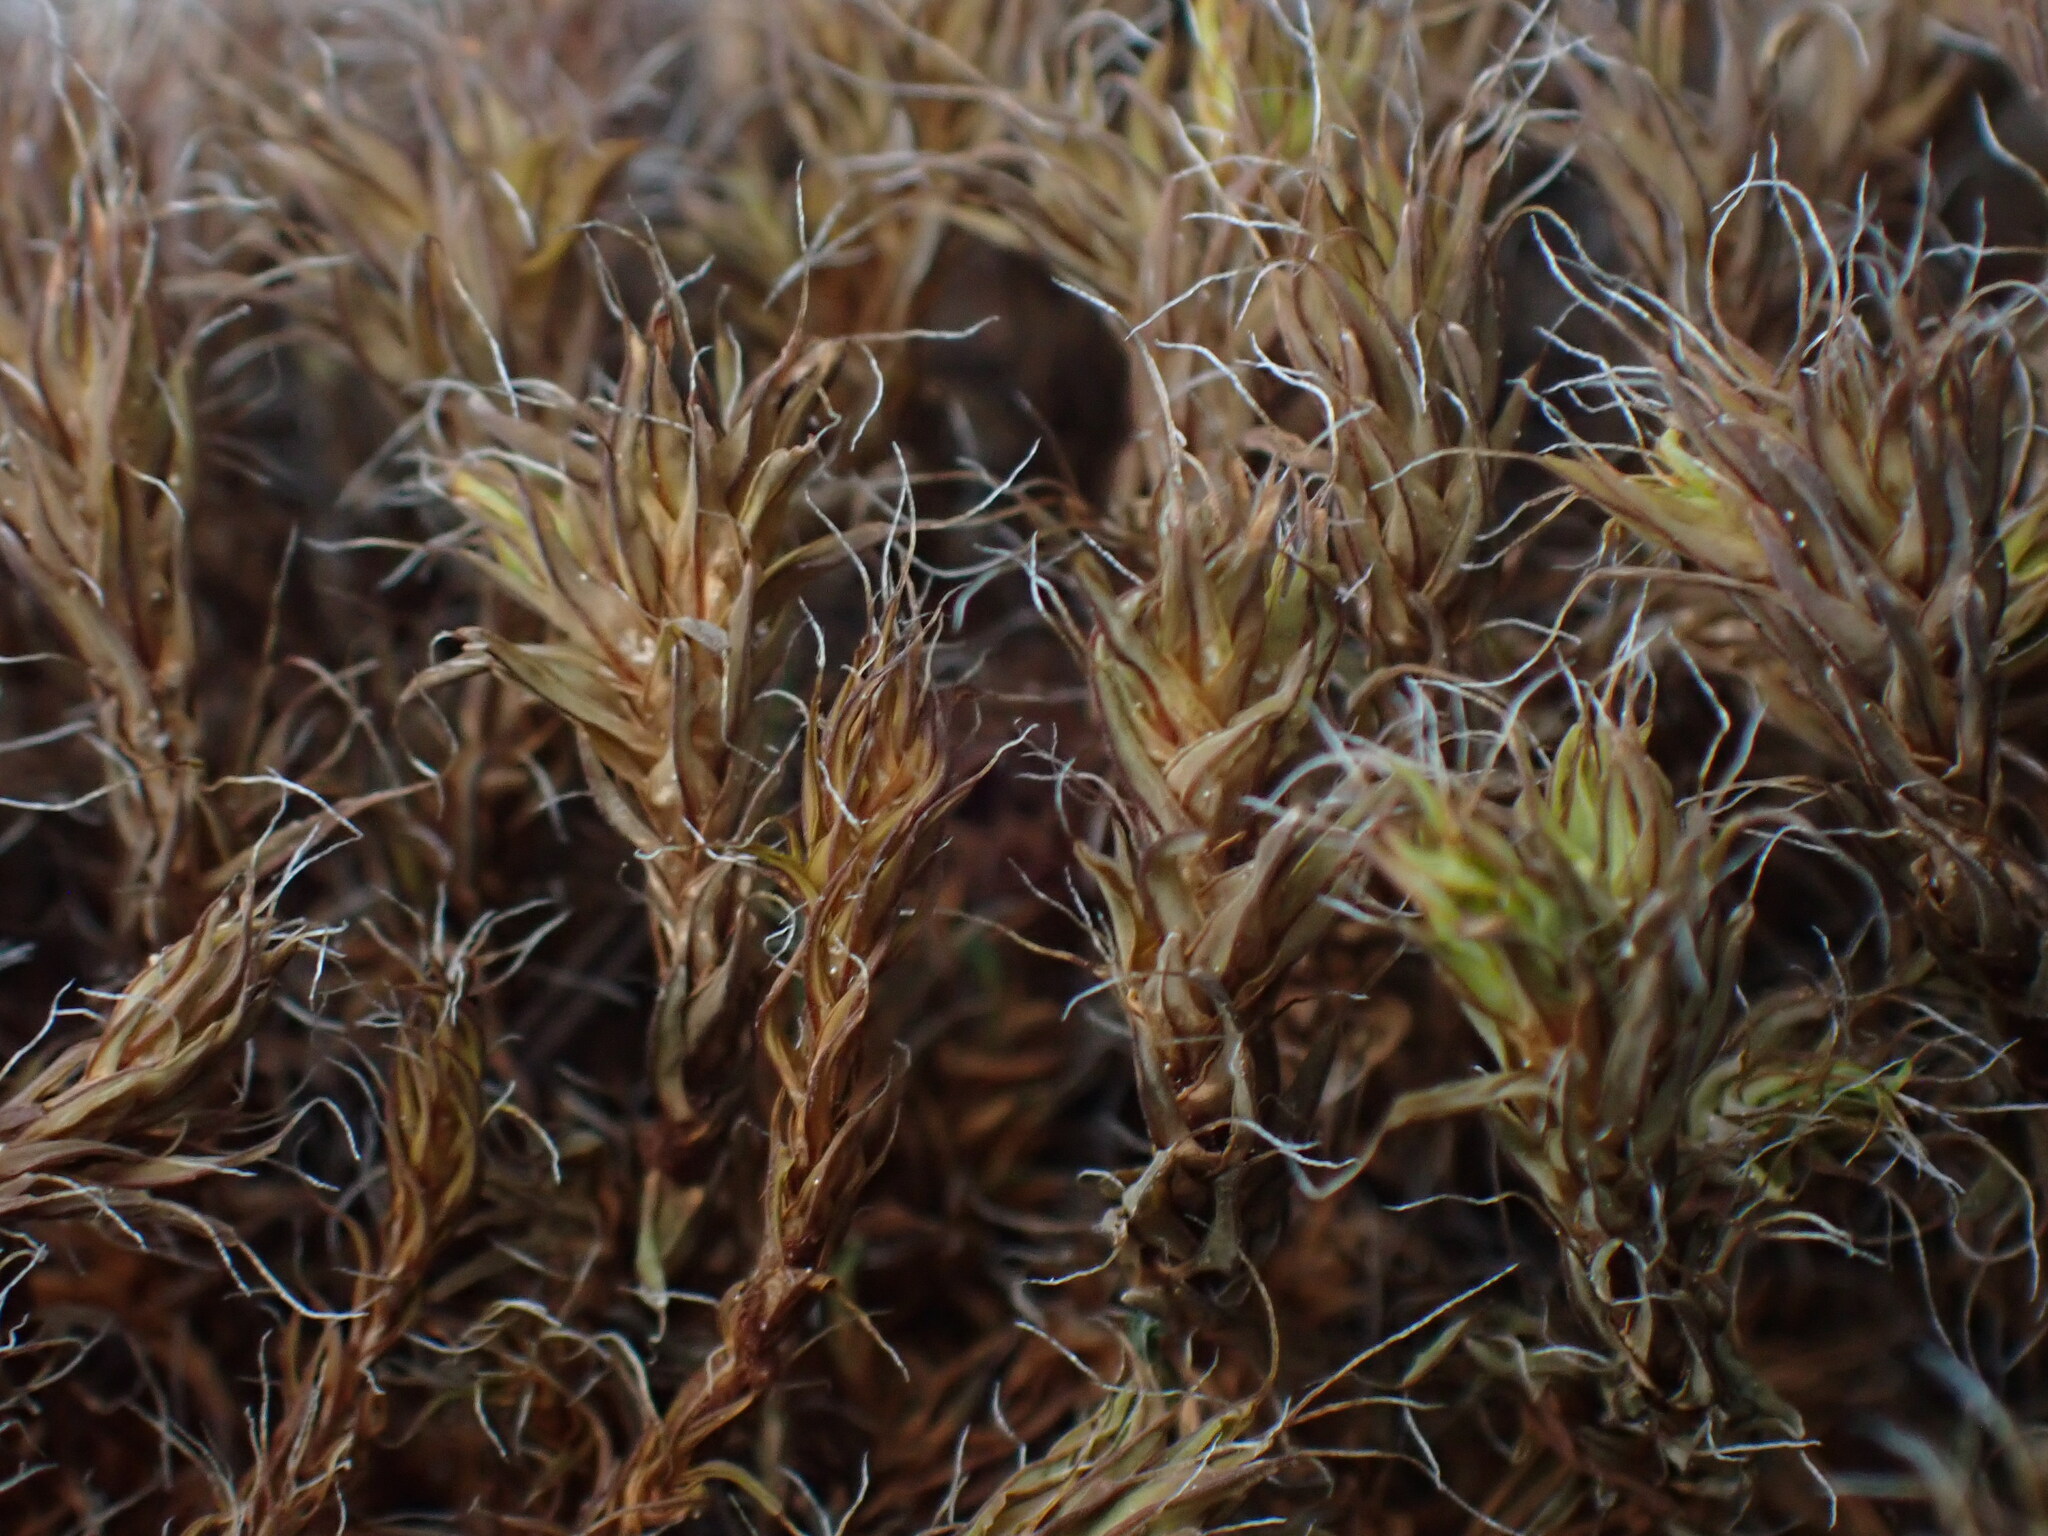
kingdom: Plantae
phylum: Bryophyta
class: Polytrichopsida
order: Polytrichales
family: Polytrichaceae
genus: Polytrichum
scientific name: Polytrichum piliferum
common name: Bristly haircap
